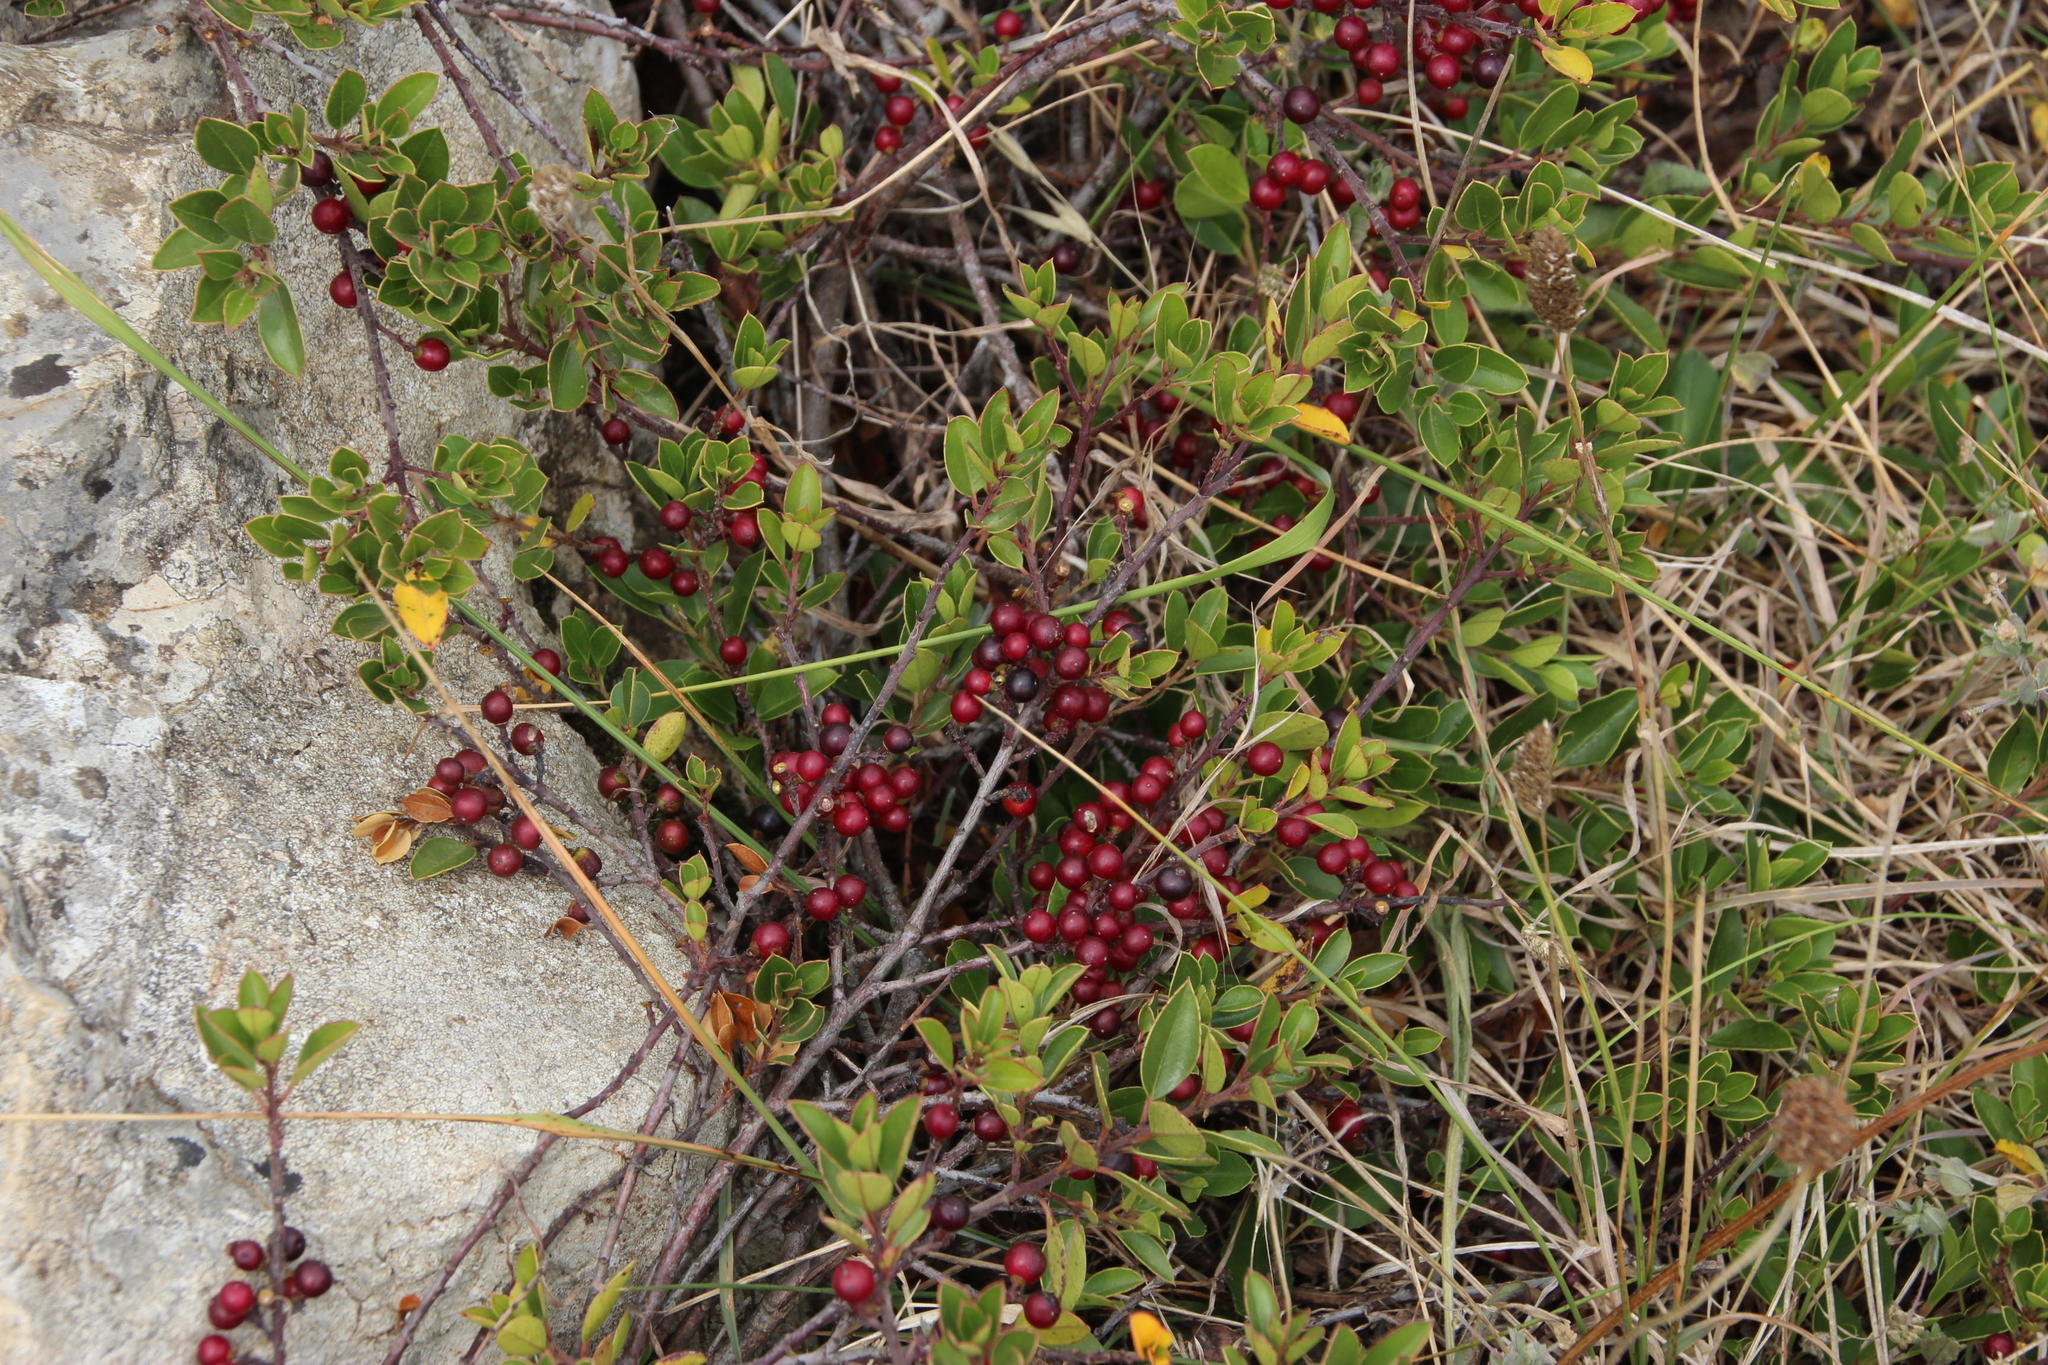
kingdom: Plantae
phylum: Tracheophyta
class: Magnoliopsida
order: Rosales
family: Rhamnaceae
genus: Rhamnus
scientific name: Rhamnus alaternus
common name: Mediterranean buckthorn
